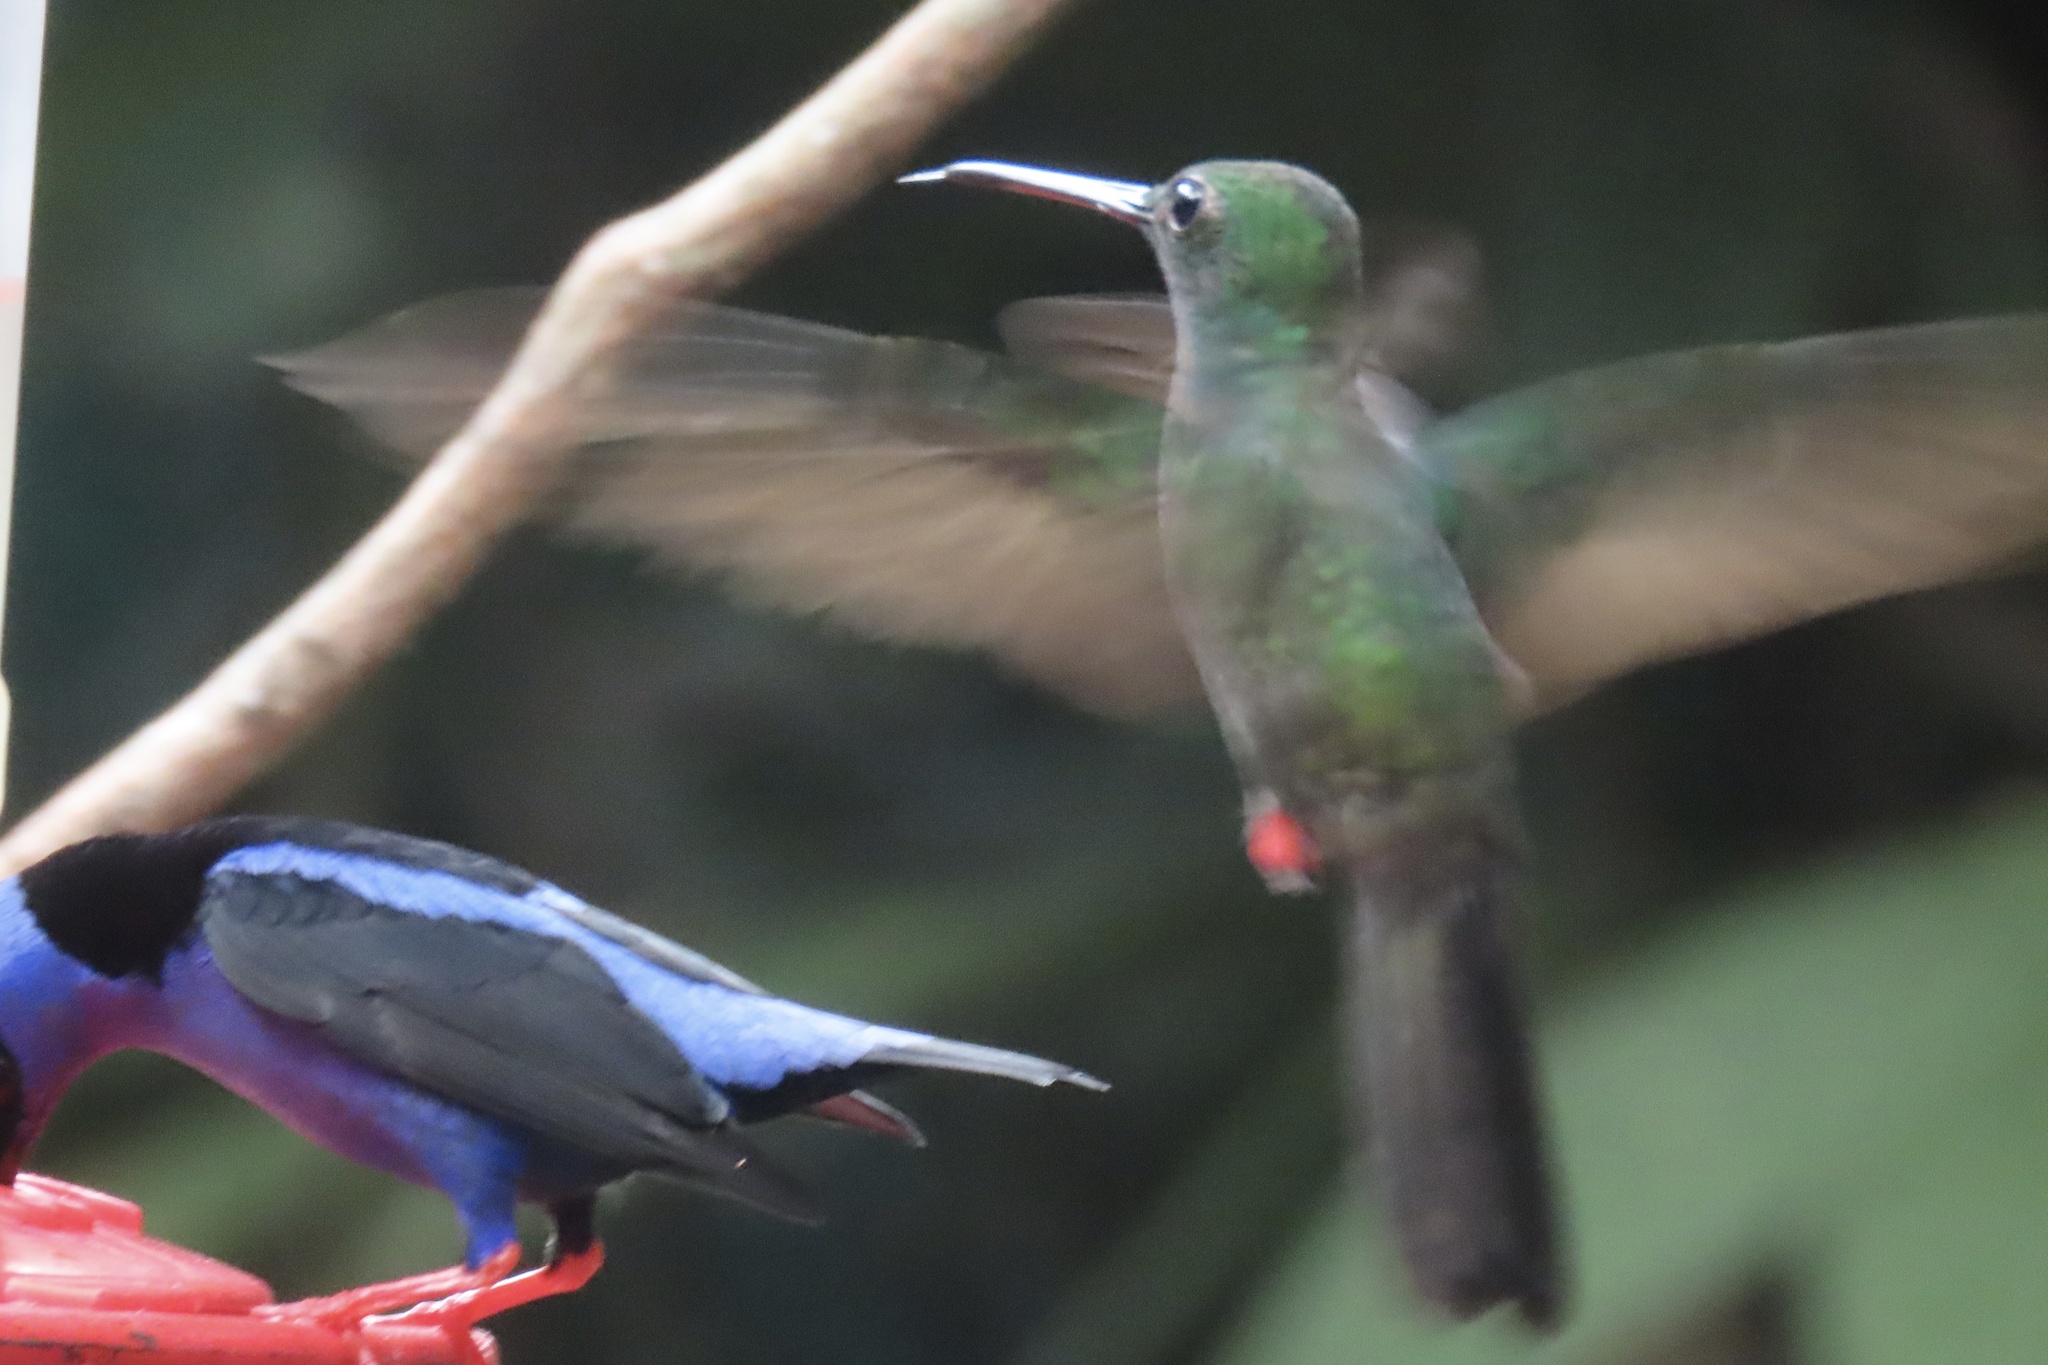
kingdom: Animalia
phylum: Chordata
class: Aves
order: Apodiformes
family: Trochilidae
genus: Chalybura
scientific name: Chalybura urochrysia
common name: Bronze-tailed plumeleteer
